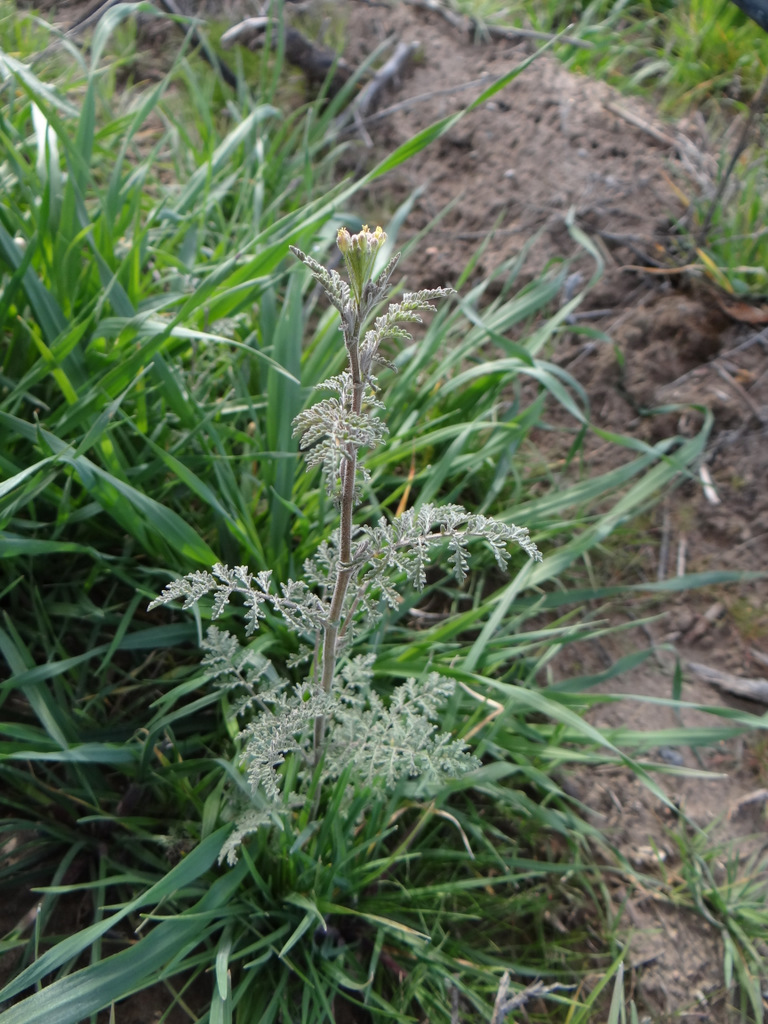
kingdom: Plantae
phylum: Tracheophyta
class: Magnoliopsida
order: Brassicales
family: Brassicaceae
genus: Descurainia
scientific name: Descurainia erodiifolia
